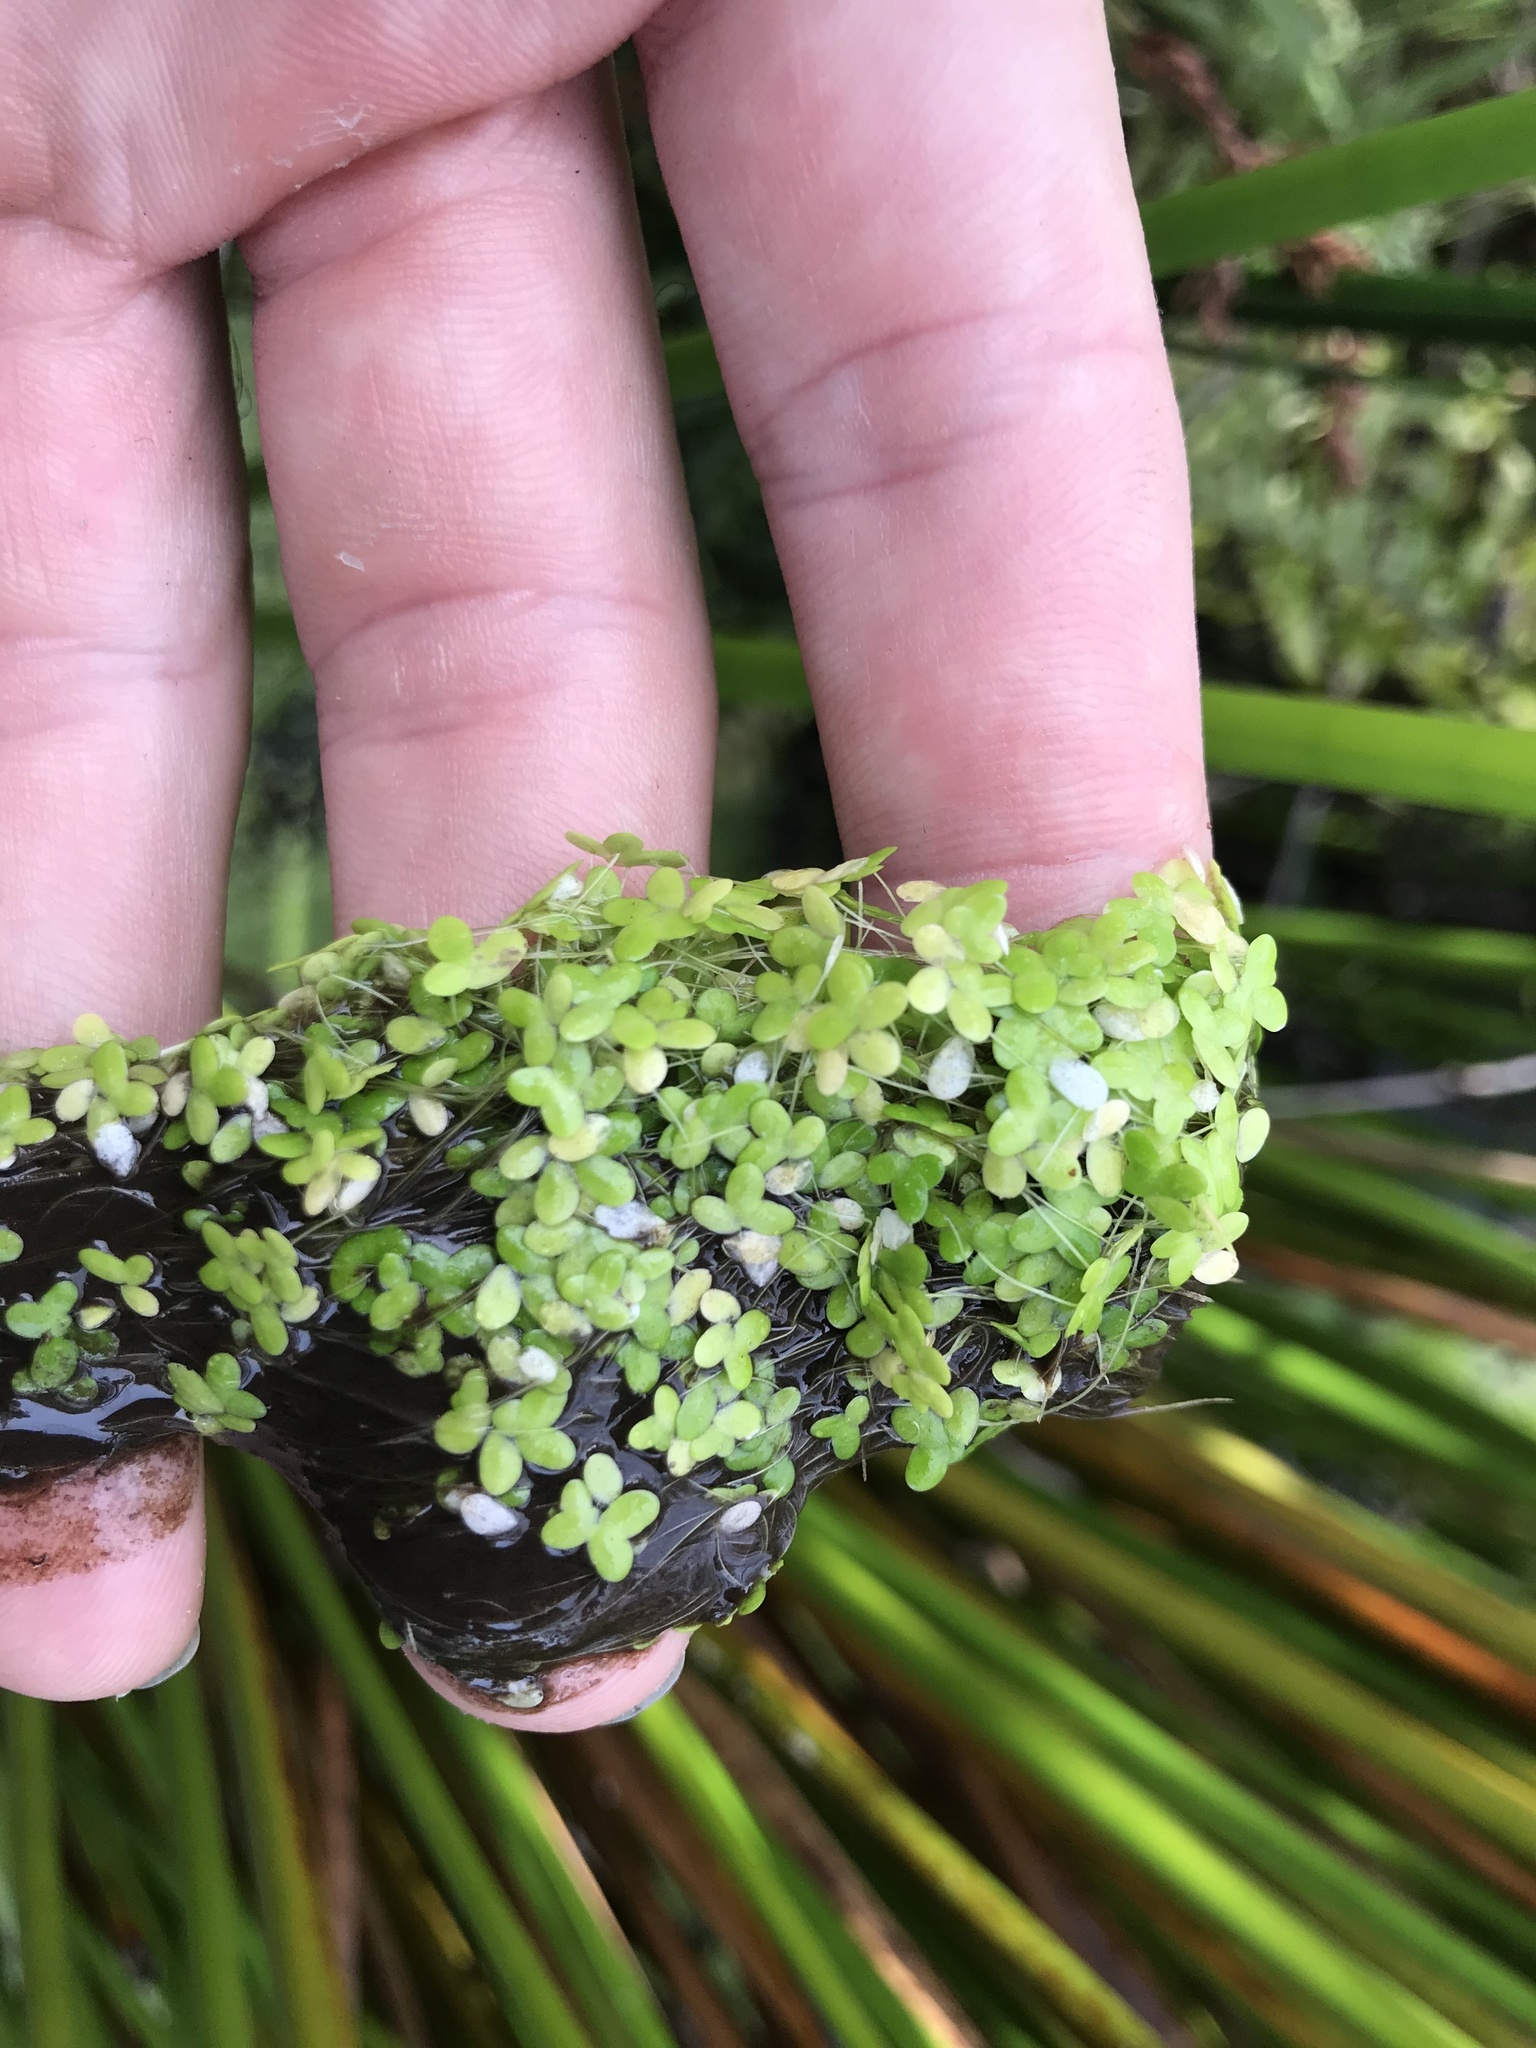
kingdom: Plantae
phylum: Tracheophyta
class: Liliopsida
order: Alismatales
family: Araceae
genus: Lemna
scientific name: Lemna disperma
